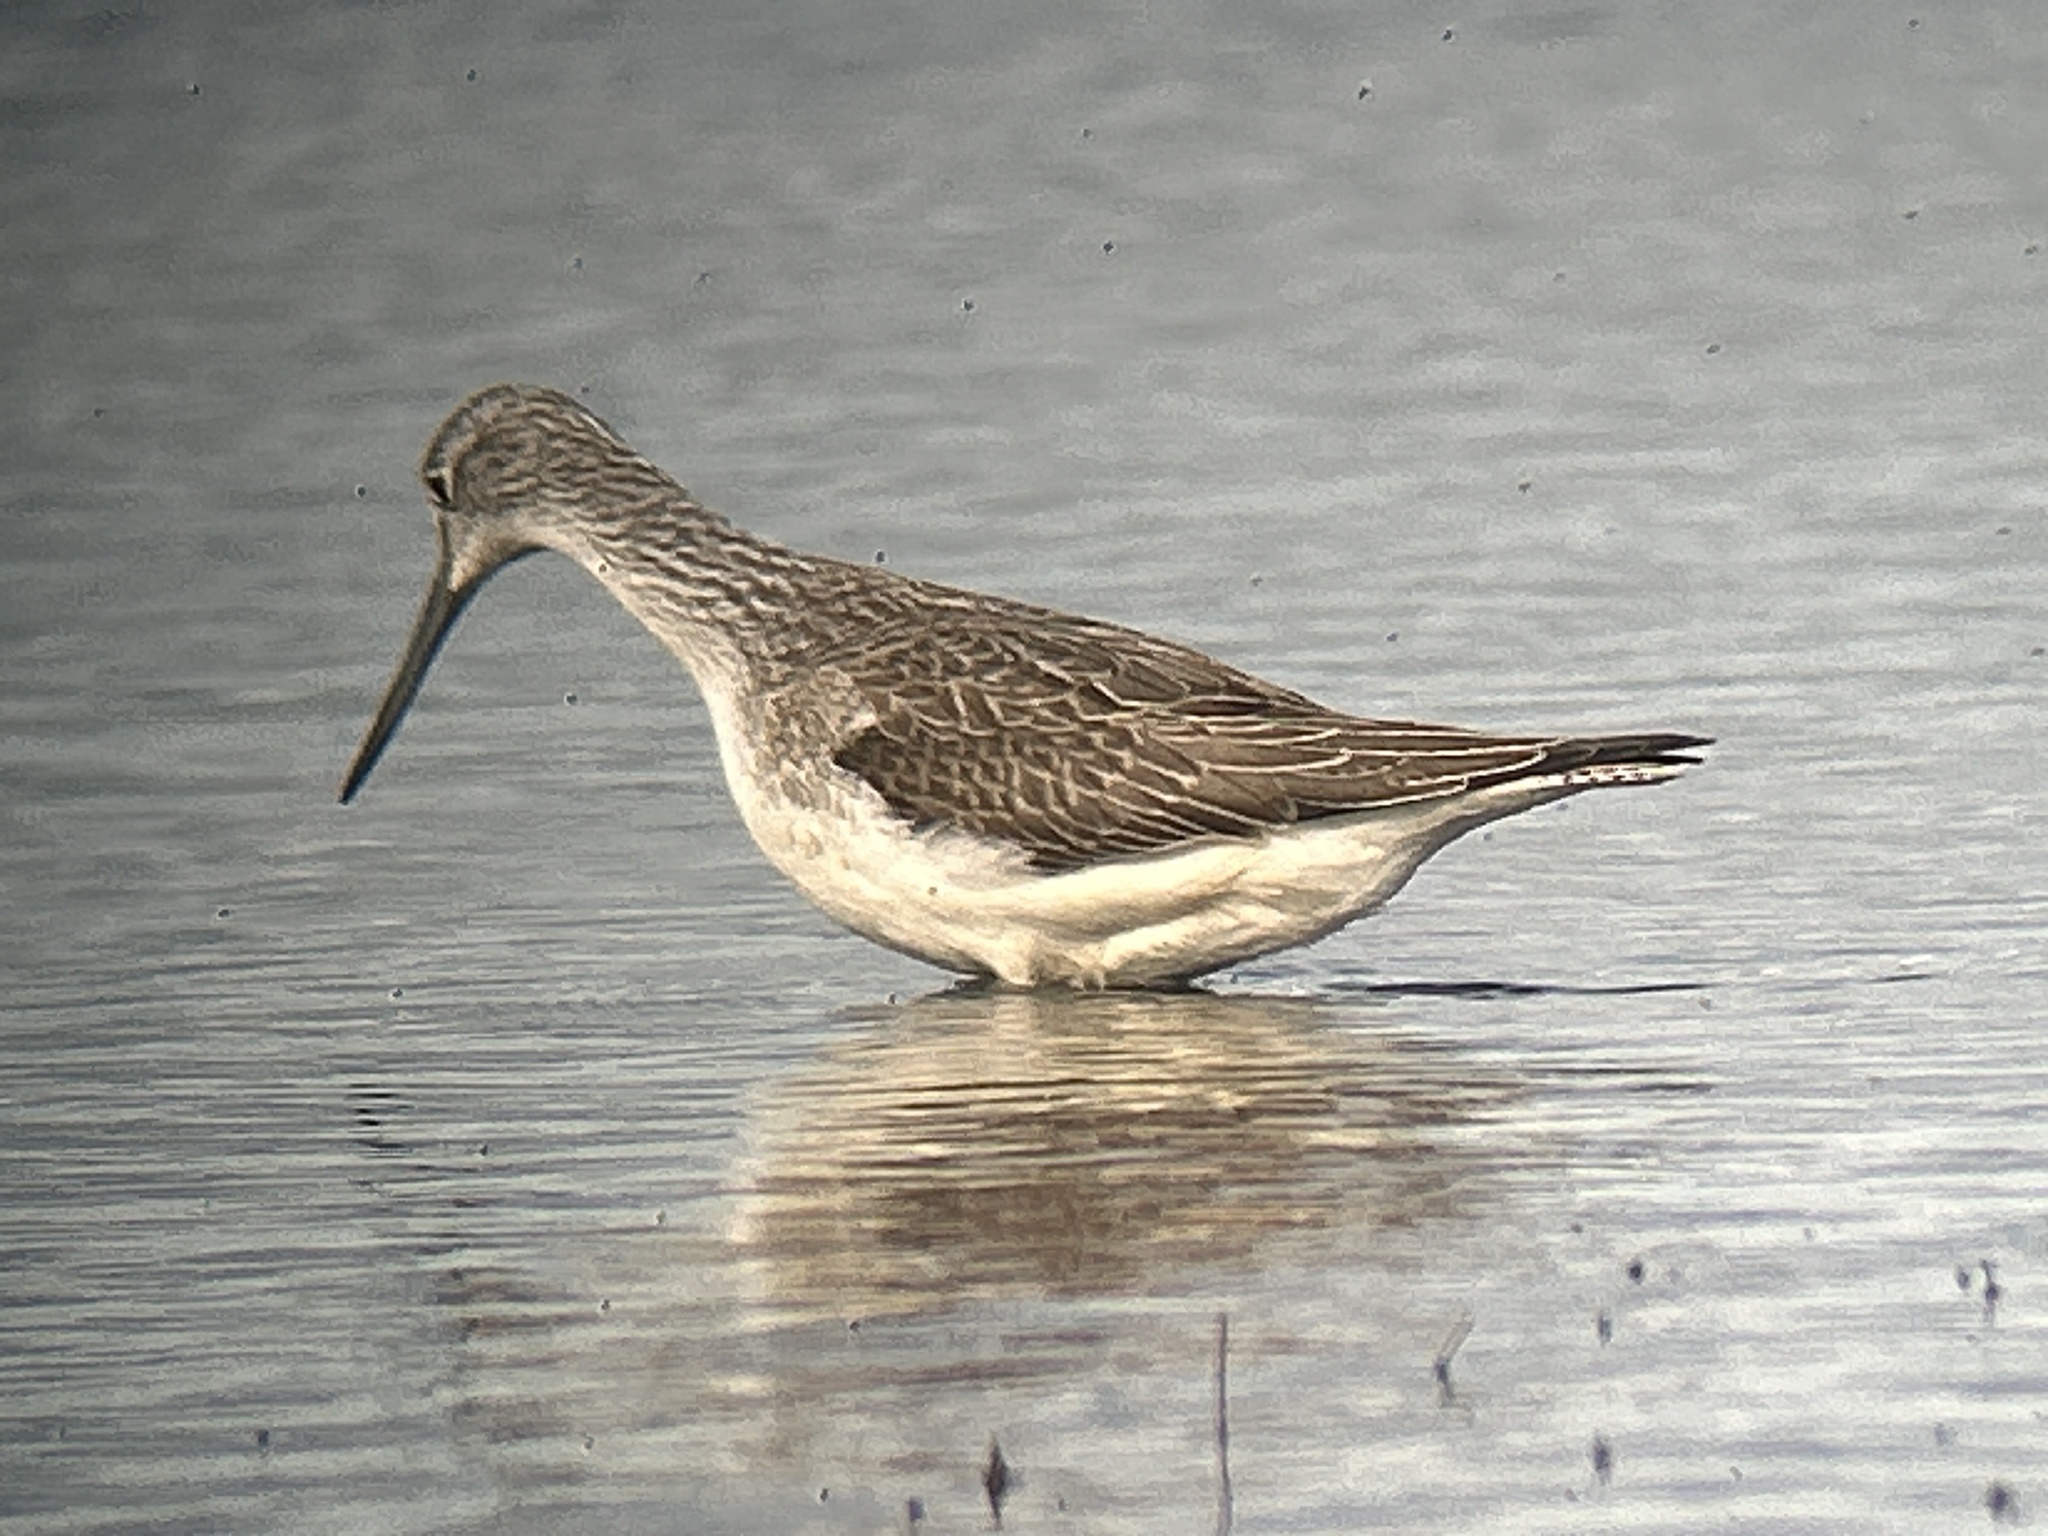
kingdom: Animalia
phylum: Chordata
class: Aves
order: Charadriiformes
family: Scolopacidae
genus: Tringa
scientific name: Tringa nebularia
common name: Common greenshank
